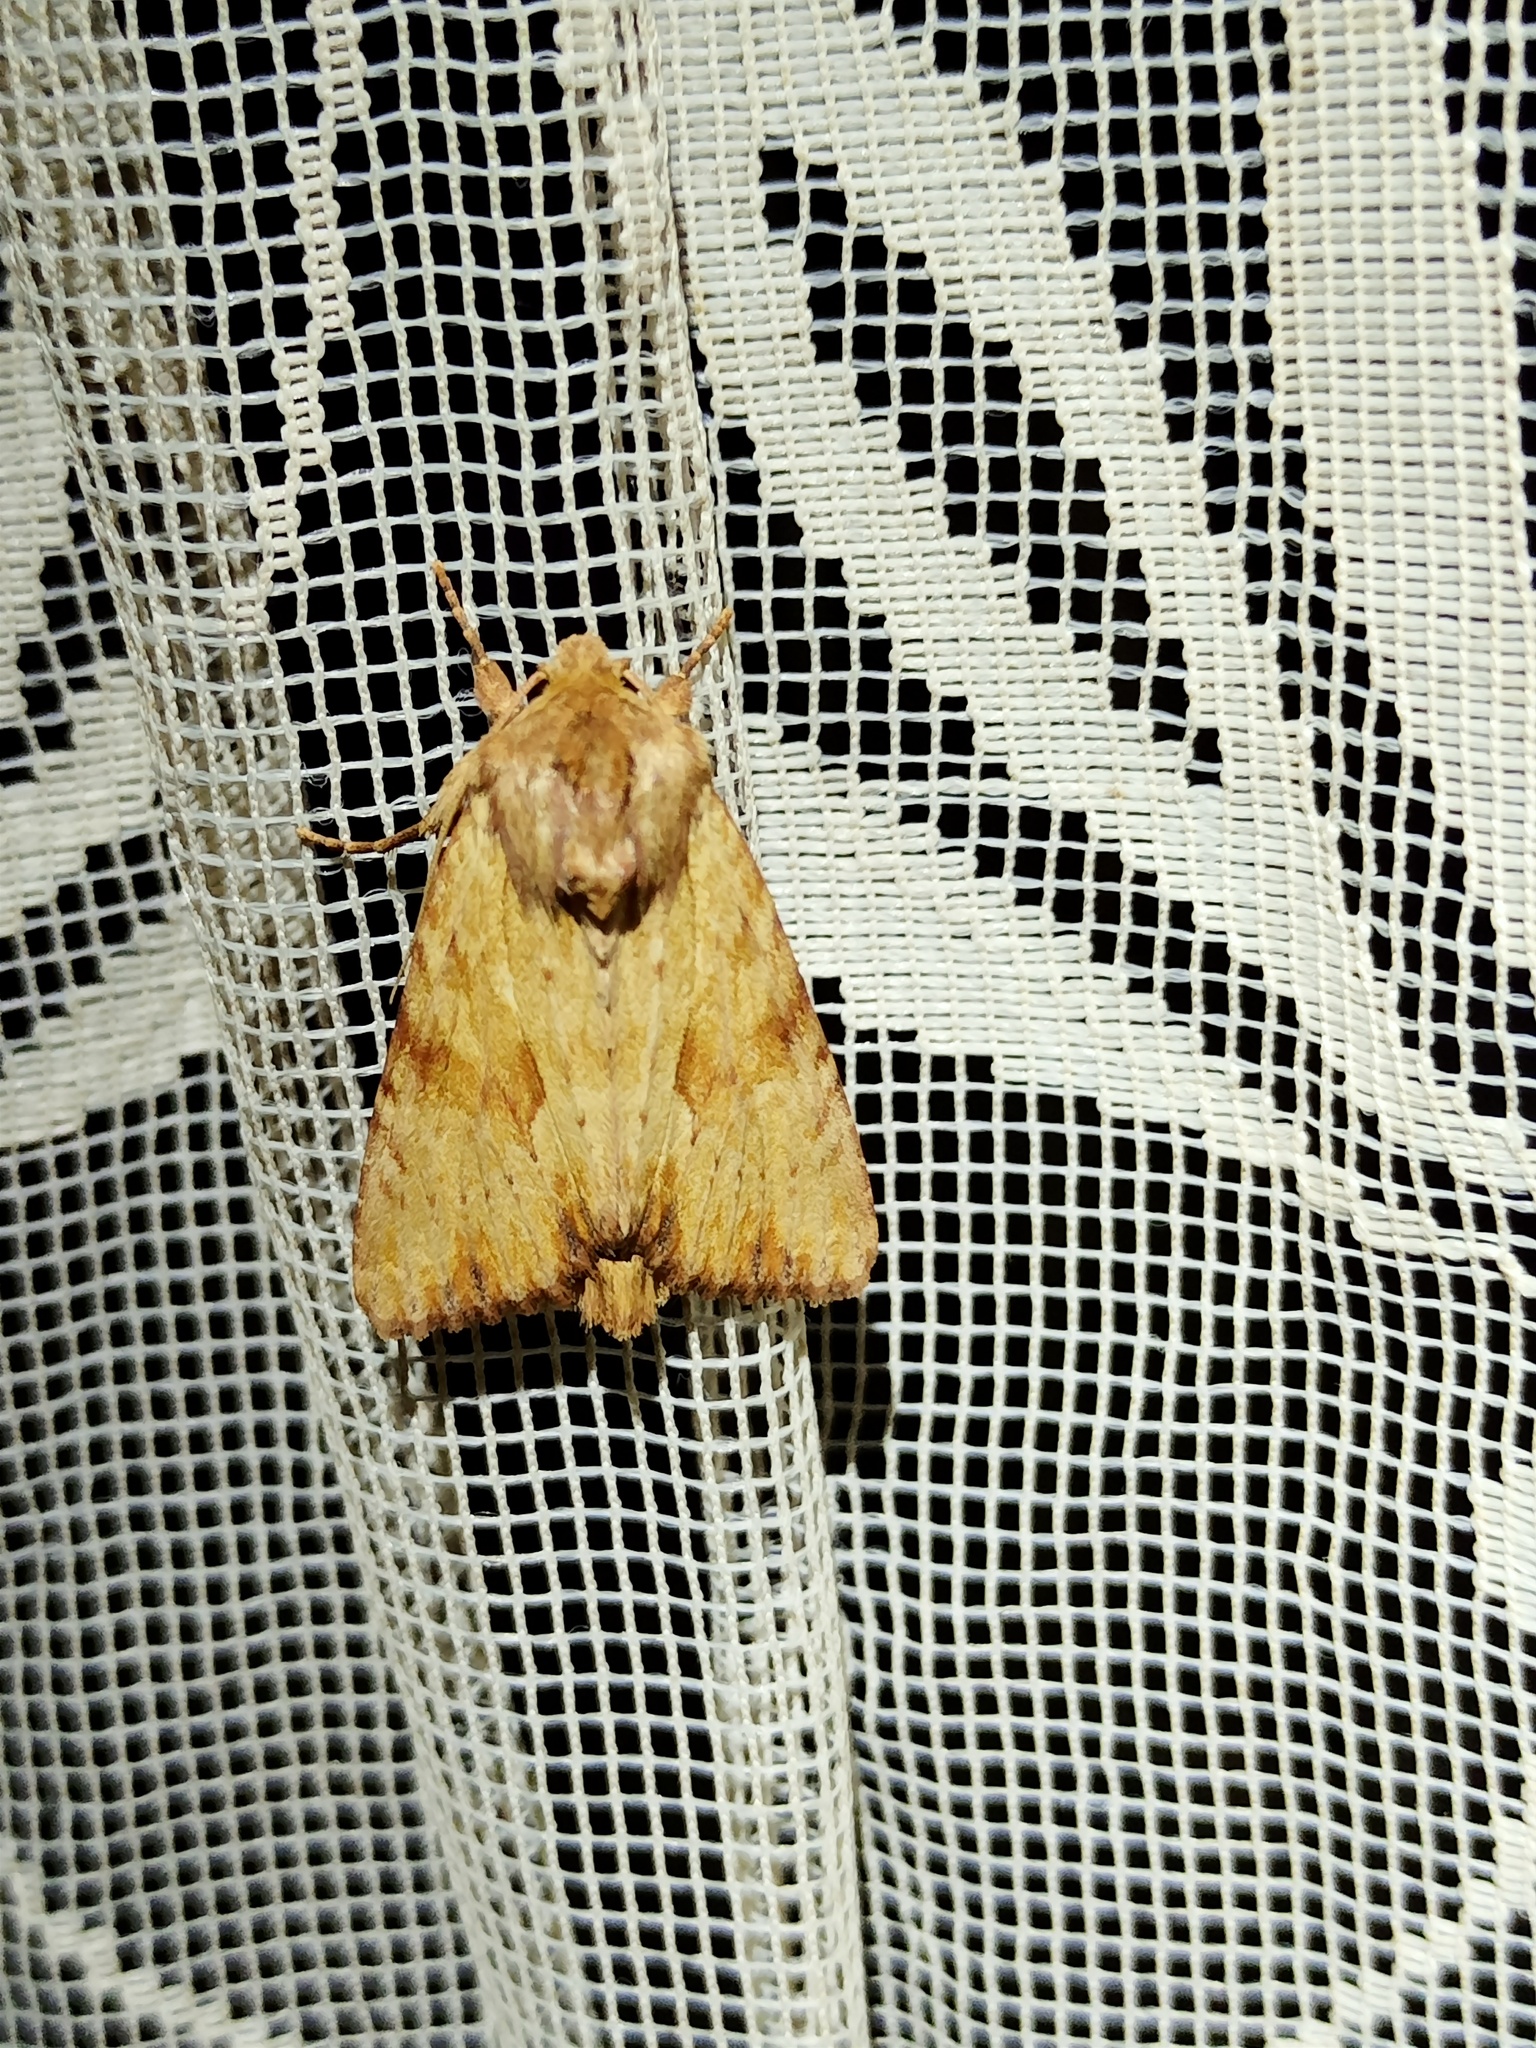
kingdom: Animalia
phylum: Arthropoda
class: Insecta
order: Lepidoptera
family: Noctuidae
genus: Apamea
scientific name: Apamea sublustris
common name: Reddish light arches
